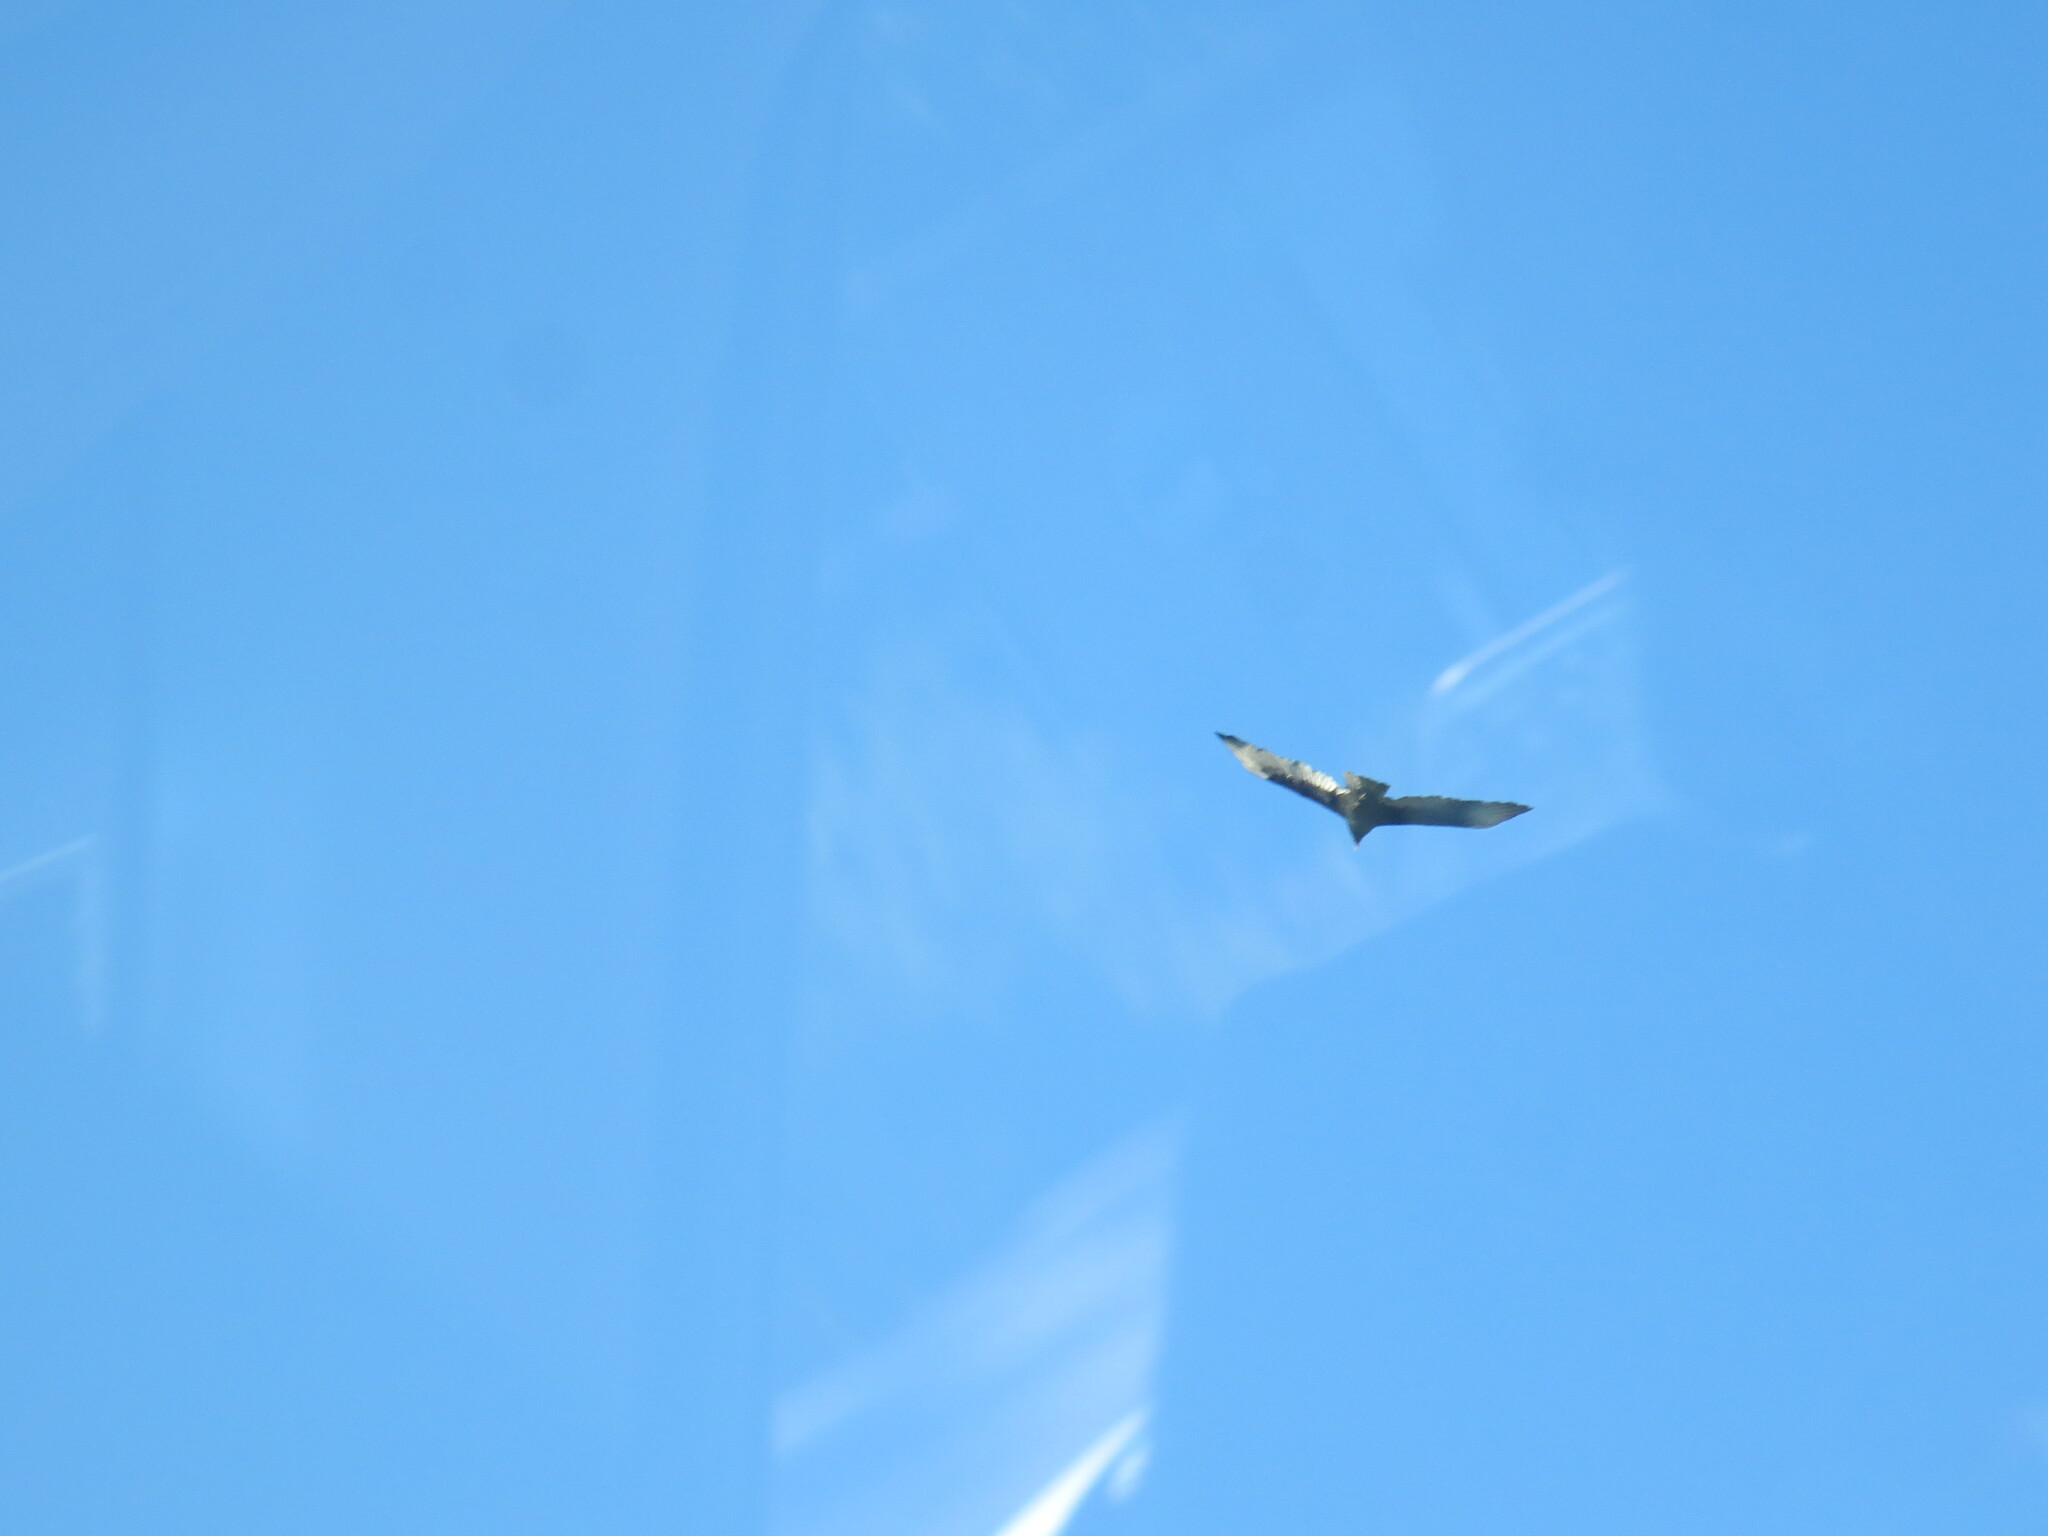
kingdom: Animalia
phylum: Chordata
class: Aves
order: Accipitriformes
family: Cathartidae
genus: Cathartes
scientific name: Cathartes aura
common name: Turkey vulture
